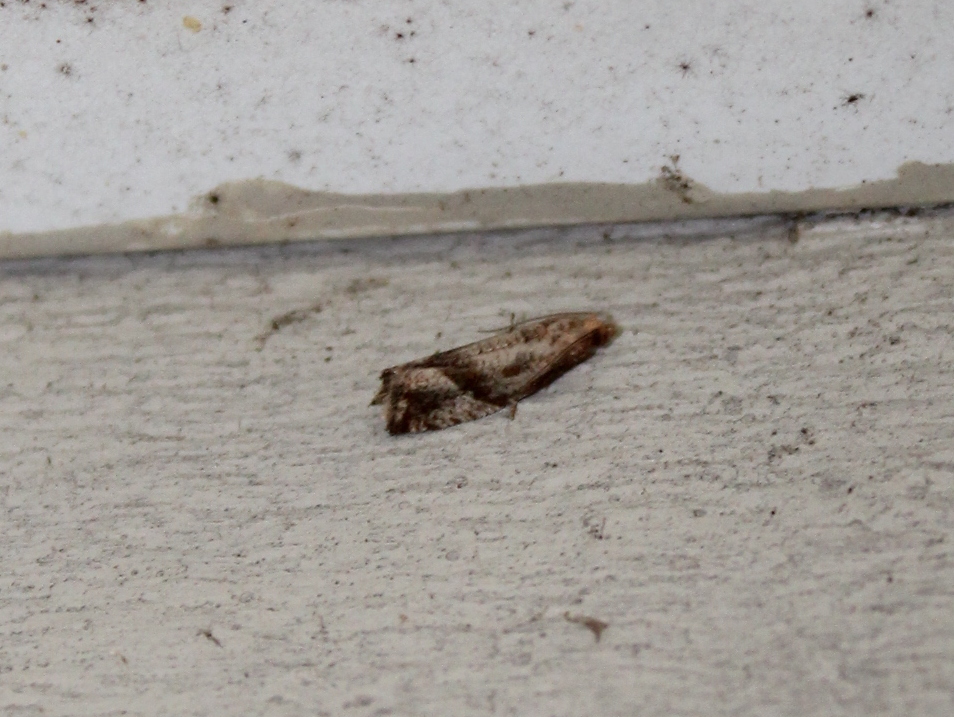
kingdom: Animalia
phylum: Arthropoda
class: Insecta
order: Lepidoptera
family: Tortricidae
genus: Pelochrista
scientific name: Pelochrista derelicta
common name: Derelict pelochrista moth
